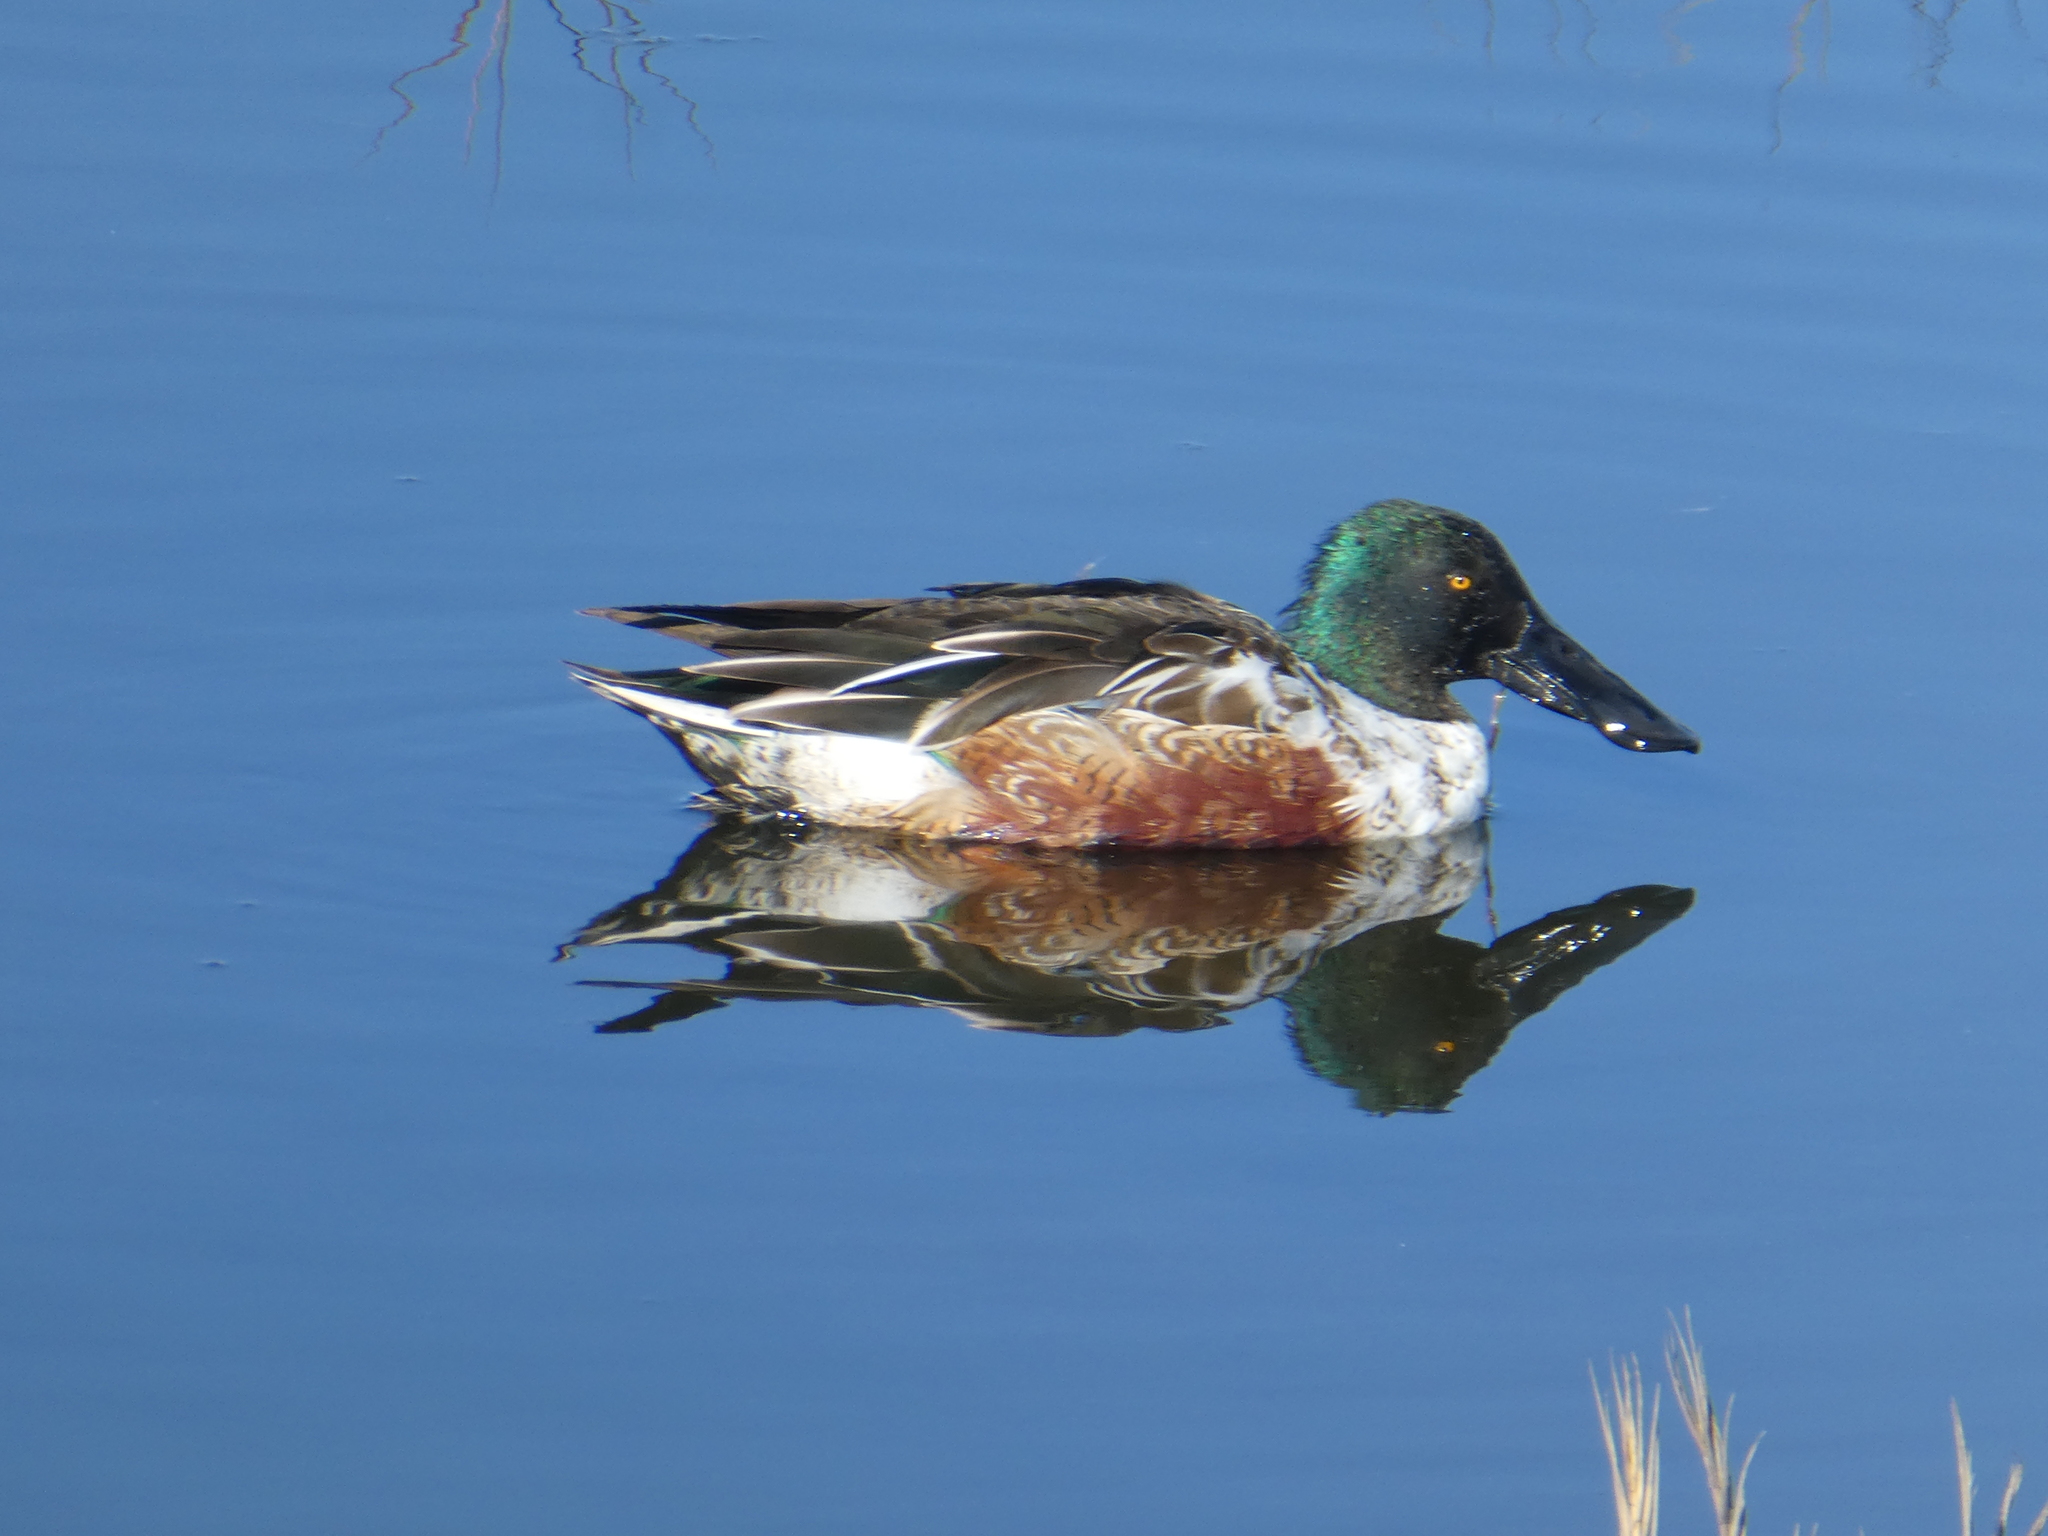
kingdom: Animalia
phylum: Chordata
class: Aves
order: Anseriformes
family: Anatidae
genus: Spatula
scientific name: Spatula clypeata
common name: Northern shoveler
